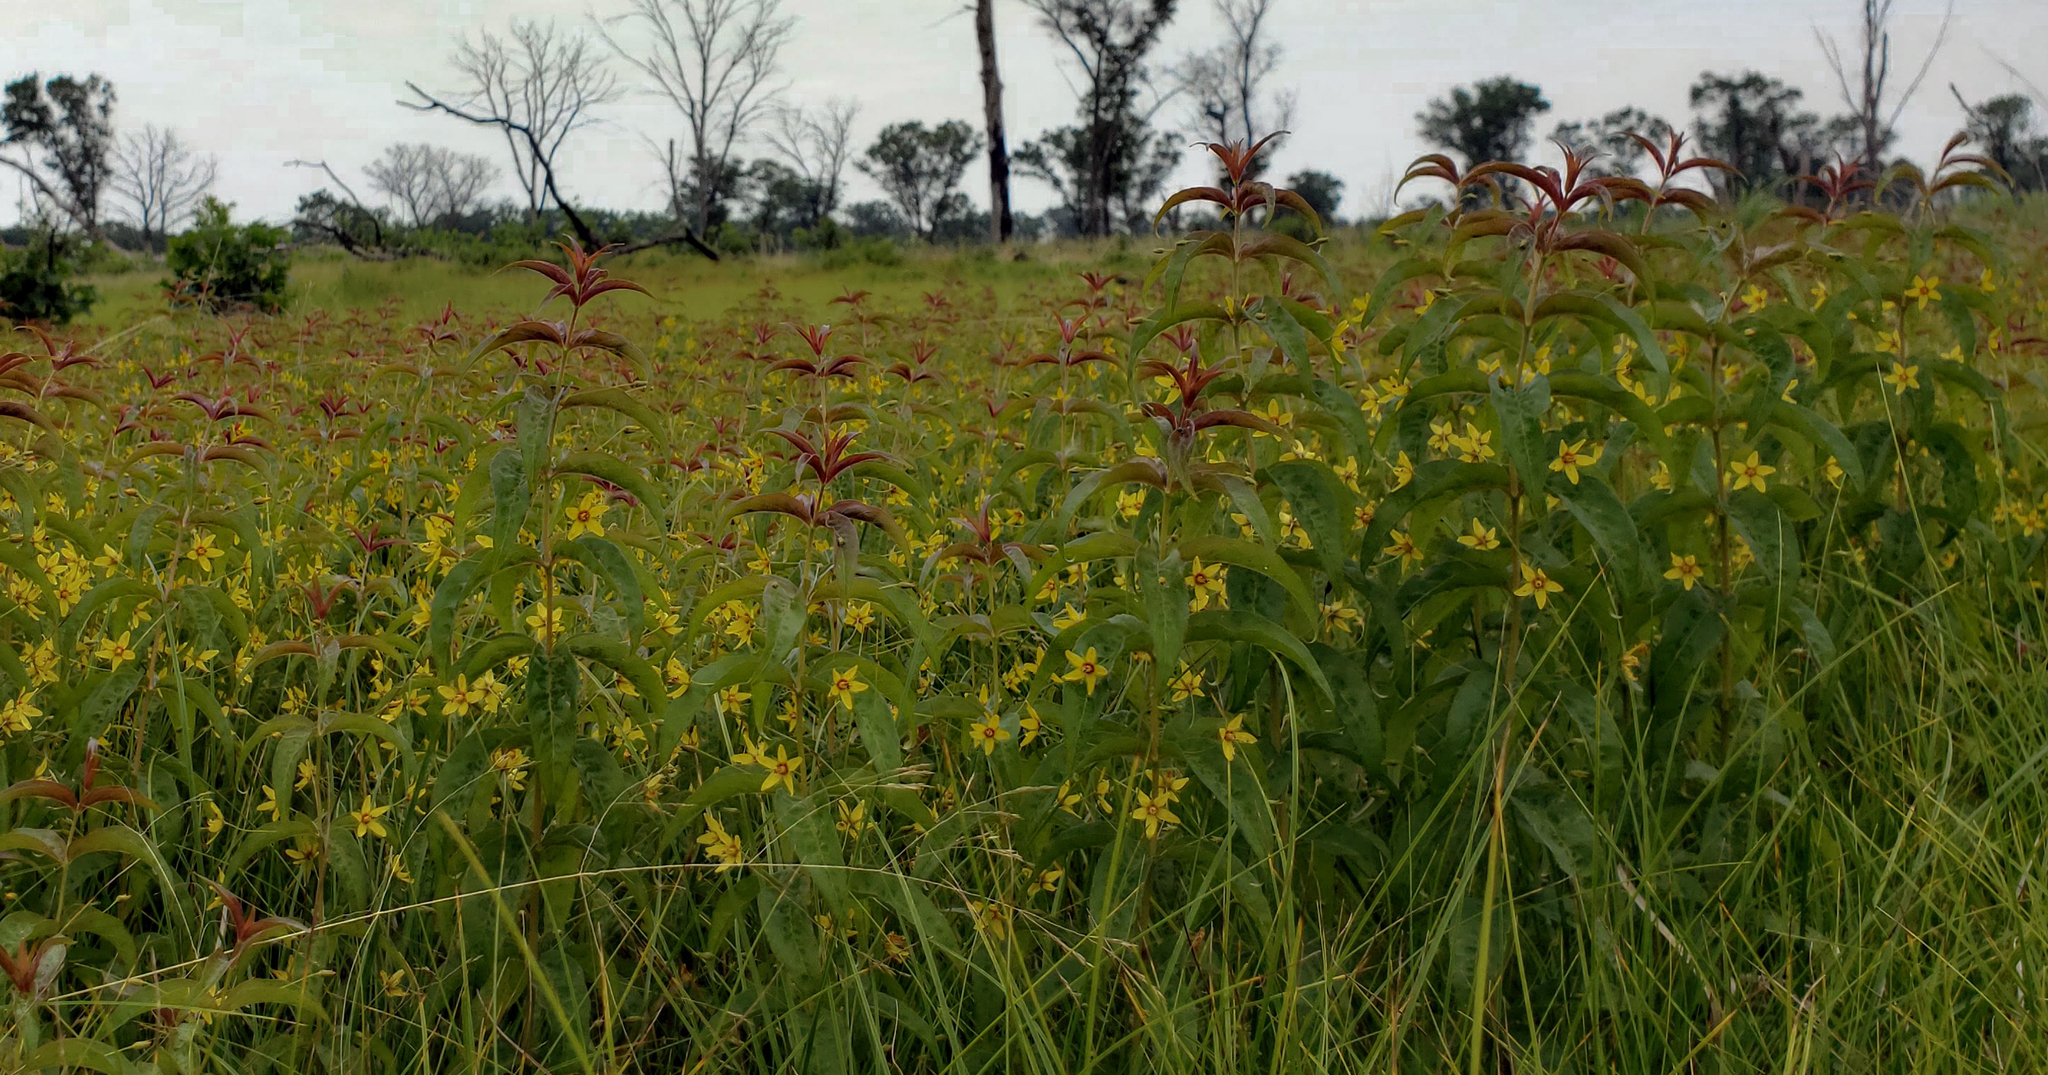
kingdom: Plantae
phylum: Tracheophyta
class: Magnoliopsida
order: Ericales
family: Primulaceae
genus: Lysimachia
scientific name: Lysimachia quadrifolia
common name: Whorled loosestrife
